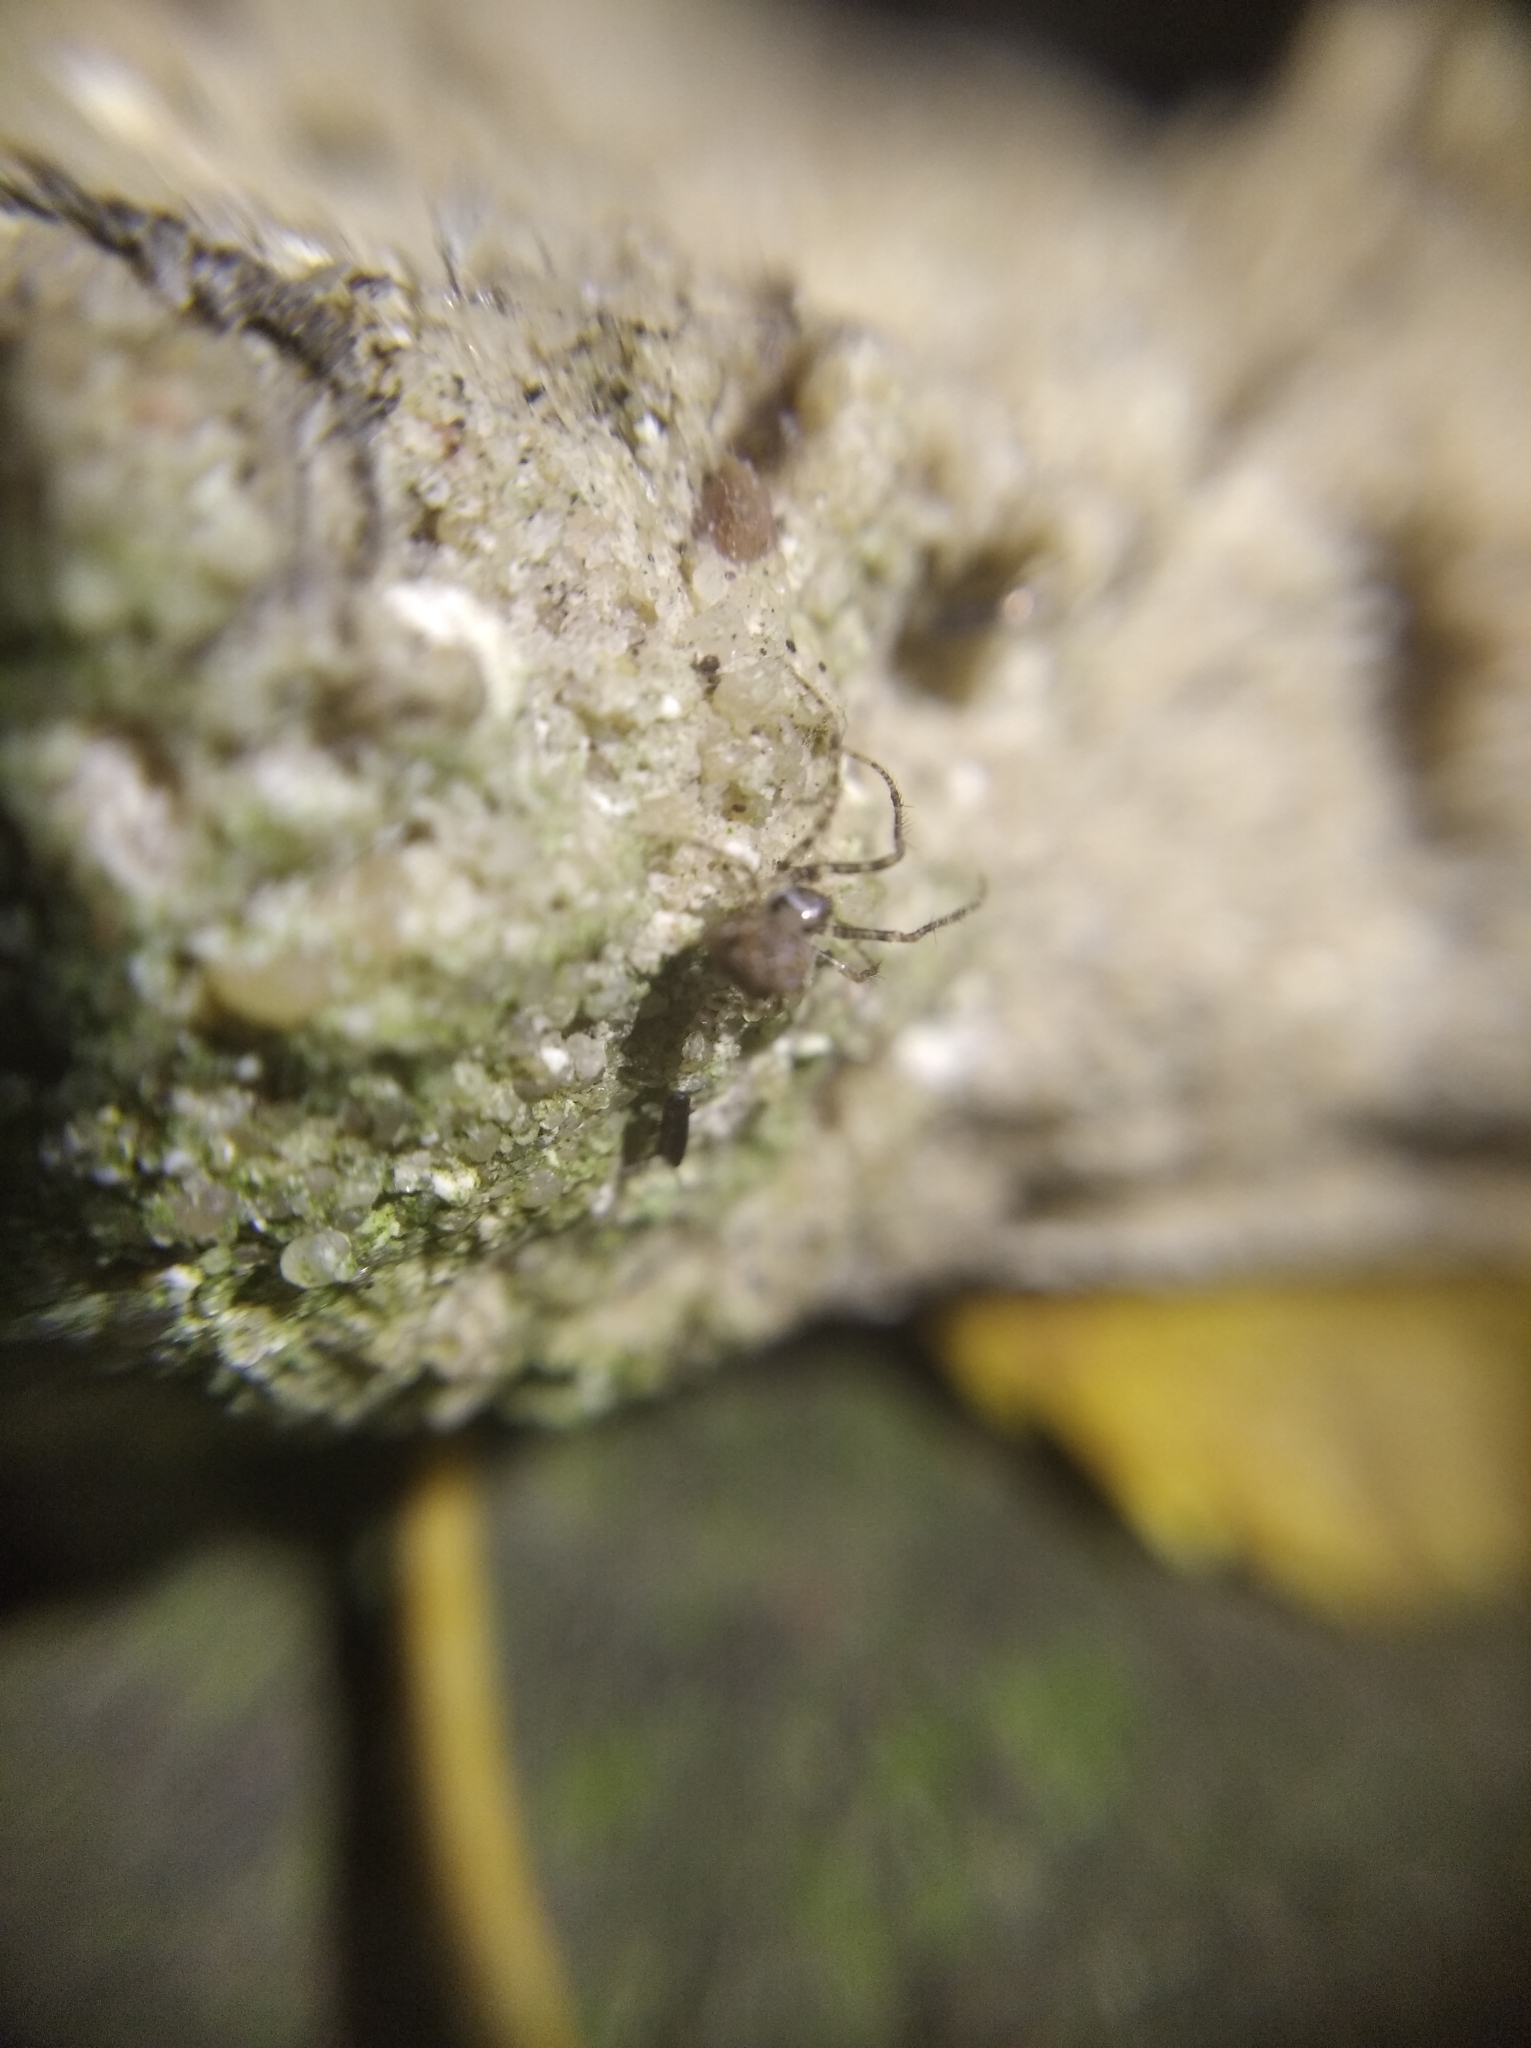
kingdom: Animalia
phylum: Arthropoda
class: Arachnida
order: Araneae
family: Mimetidae
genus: Ero
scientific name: Ero aphana
